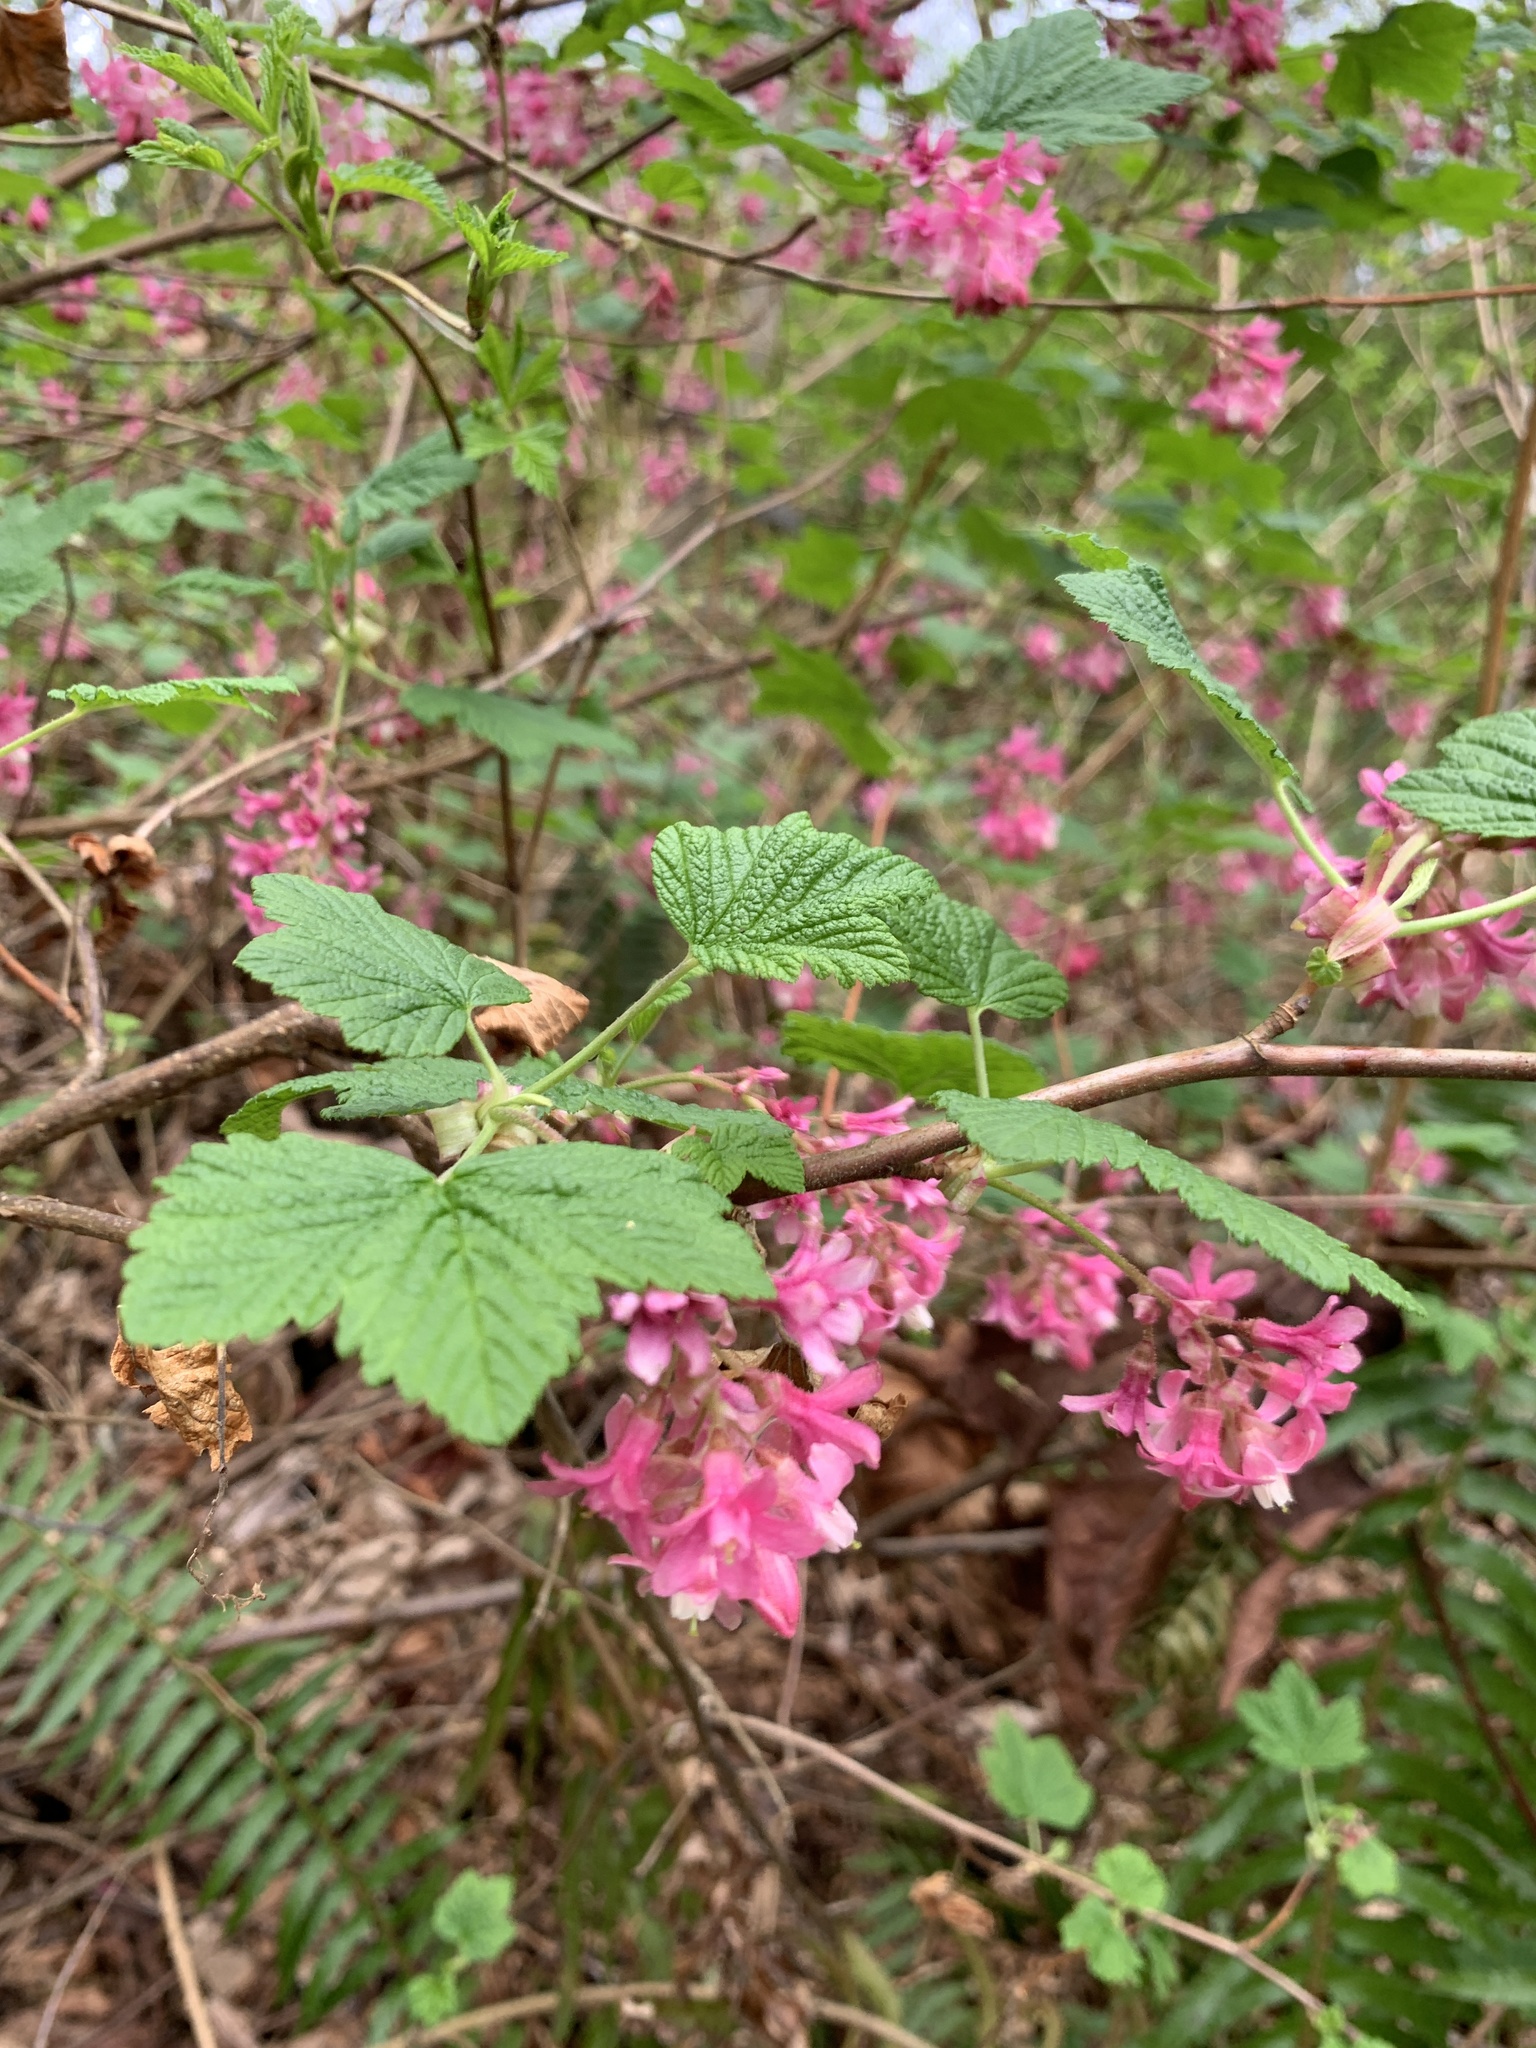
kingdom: Plantae
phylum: Tracheophyta
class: Magnoliopsida
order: Saxifragales
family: Grossulariaceae
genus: Ribes
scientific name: Ribes sanguineum
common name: Flowering currant
